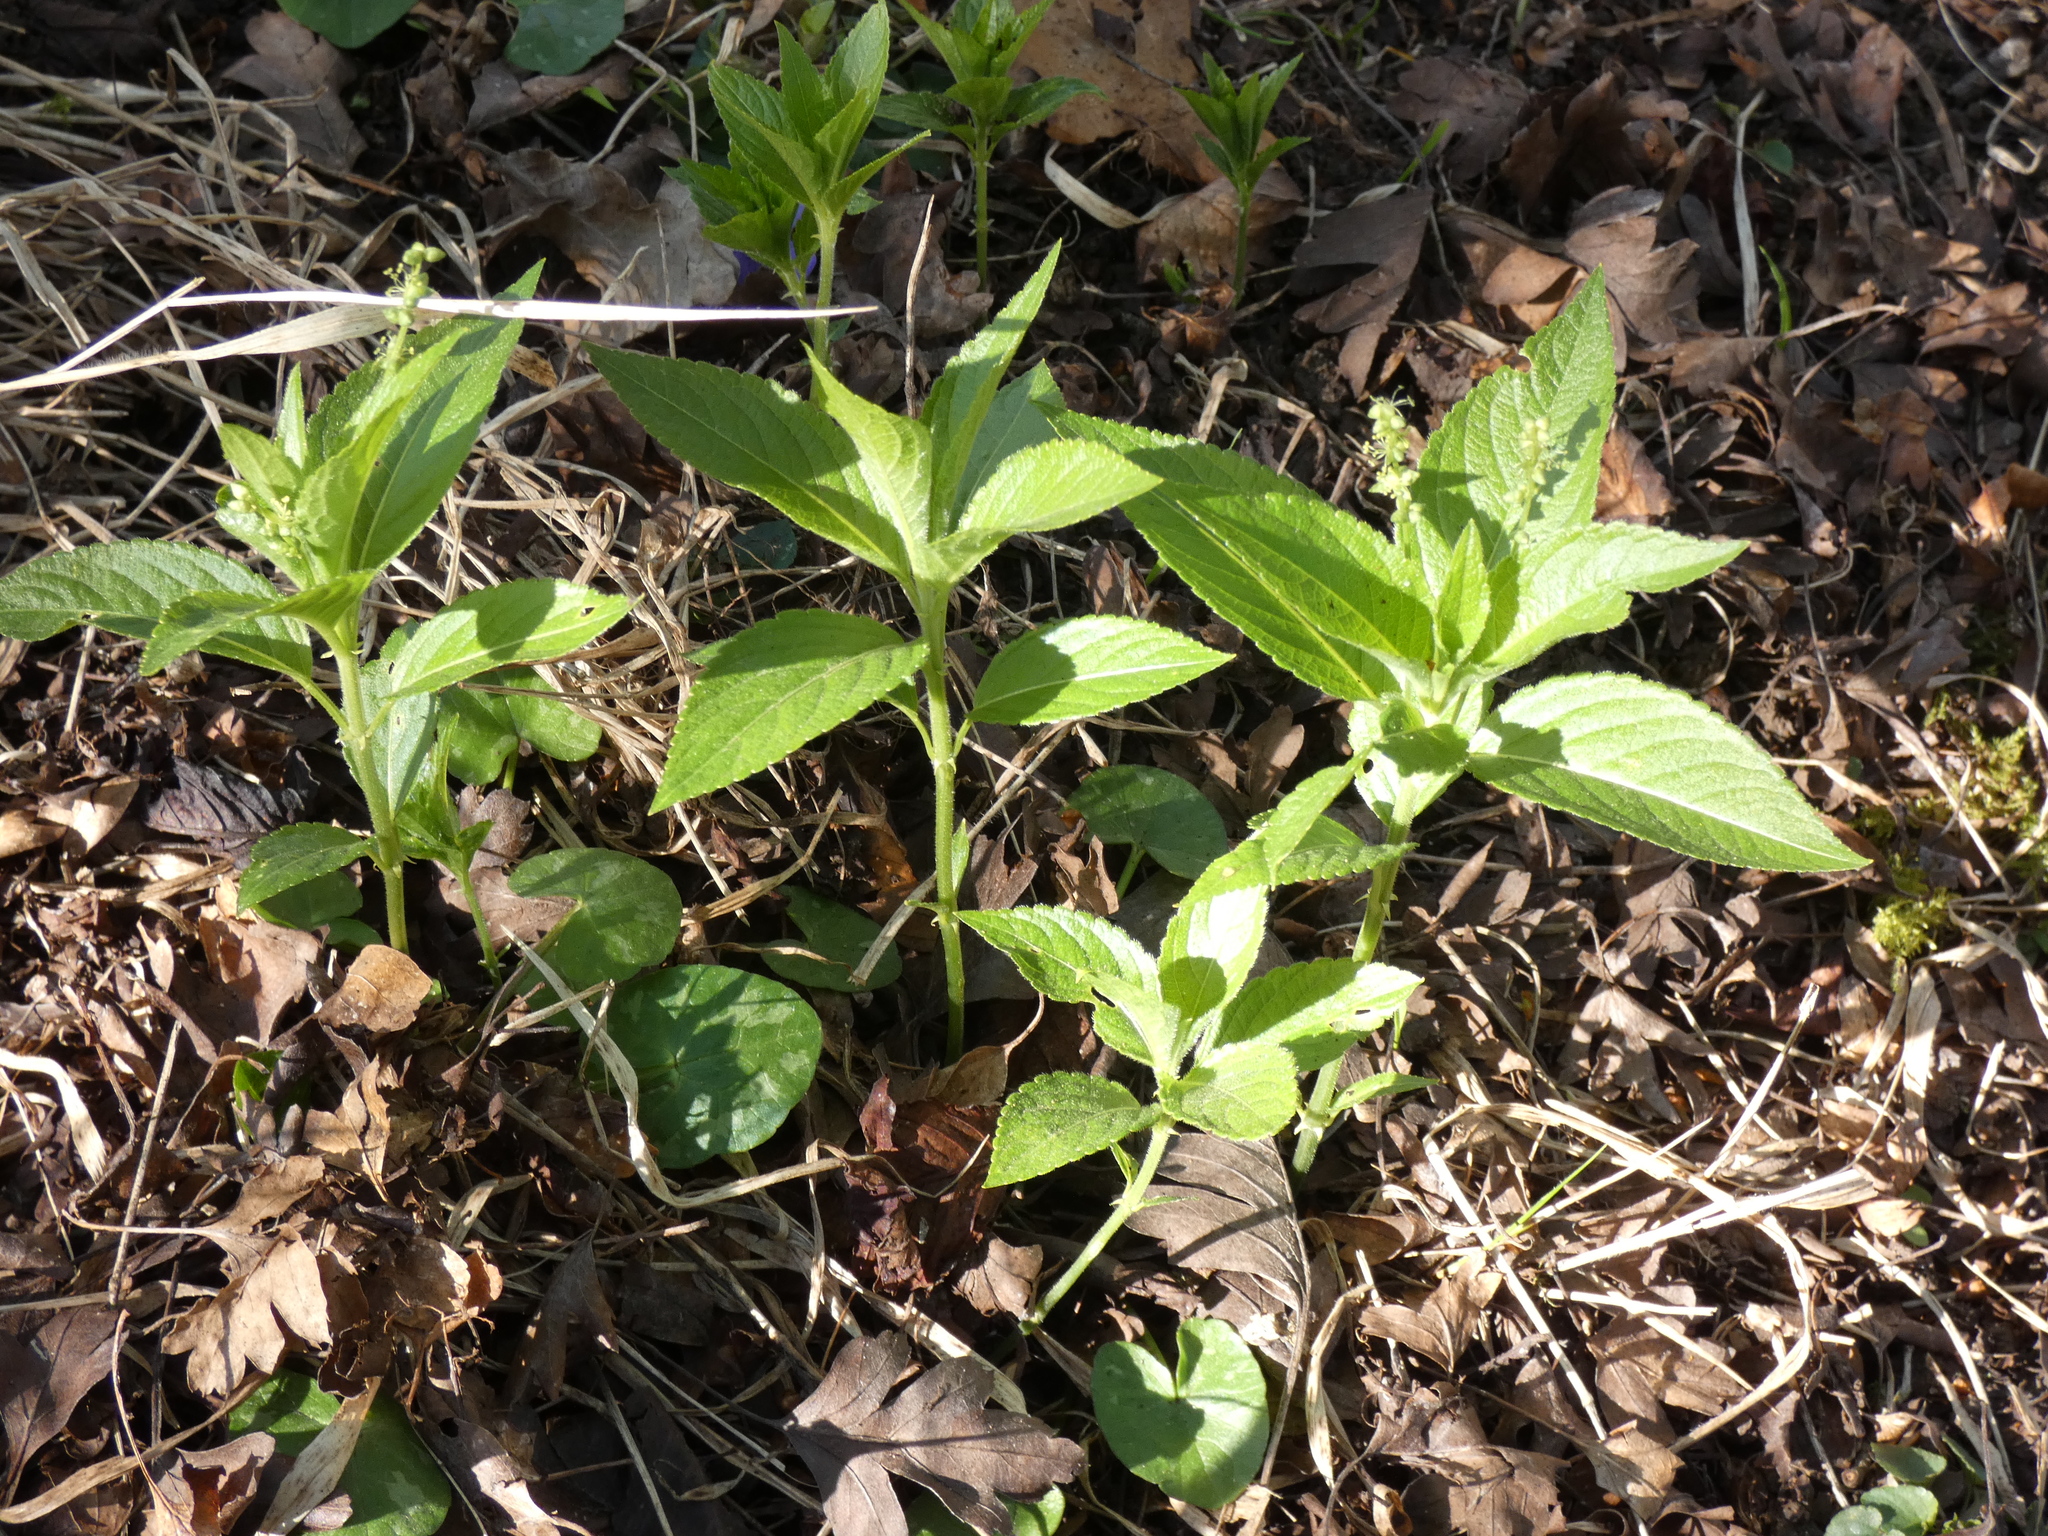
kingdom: Plantae
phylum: Tracheophyta
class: Magnoliopsida
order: Malpighiales
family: Euphorbiaceae
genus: Mercurialis
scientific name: Mercurialis perennis
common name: Dog mercury
